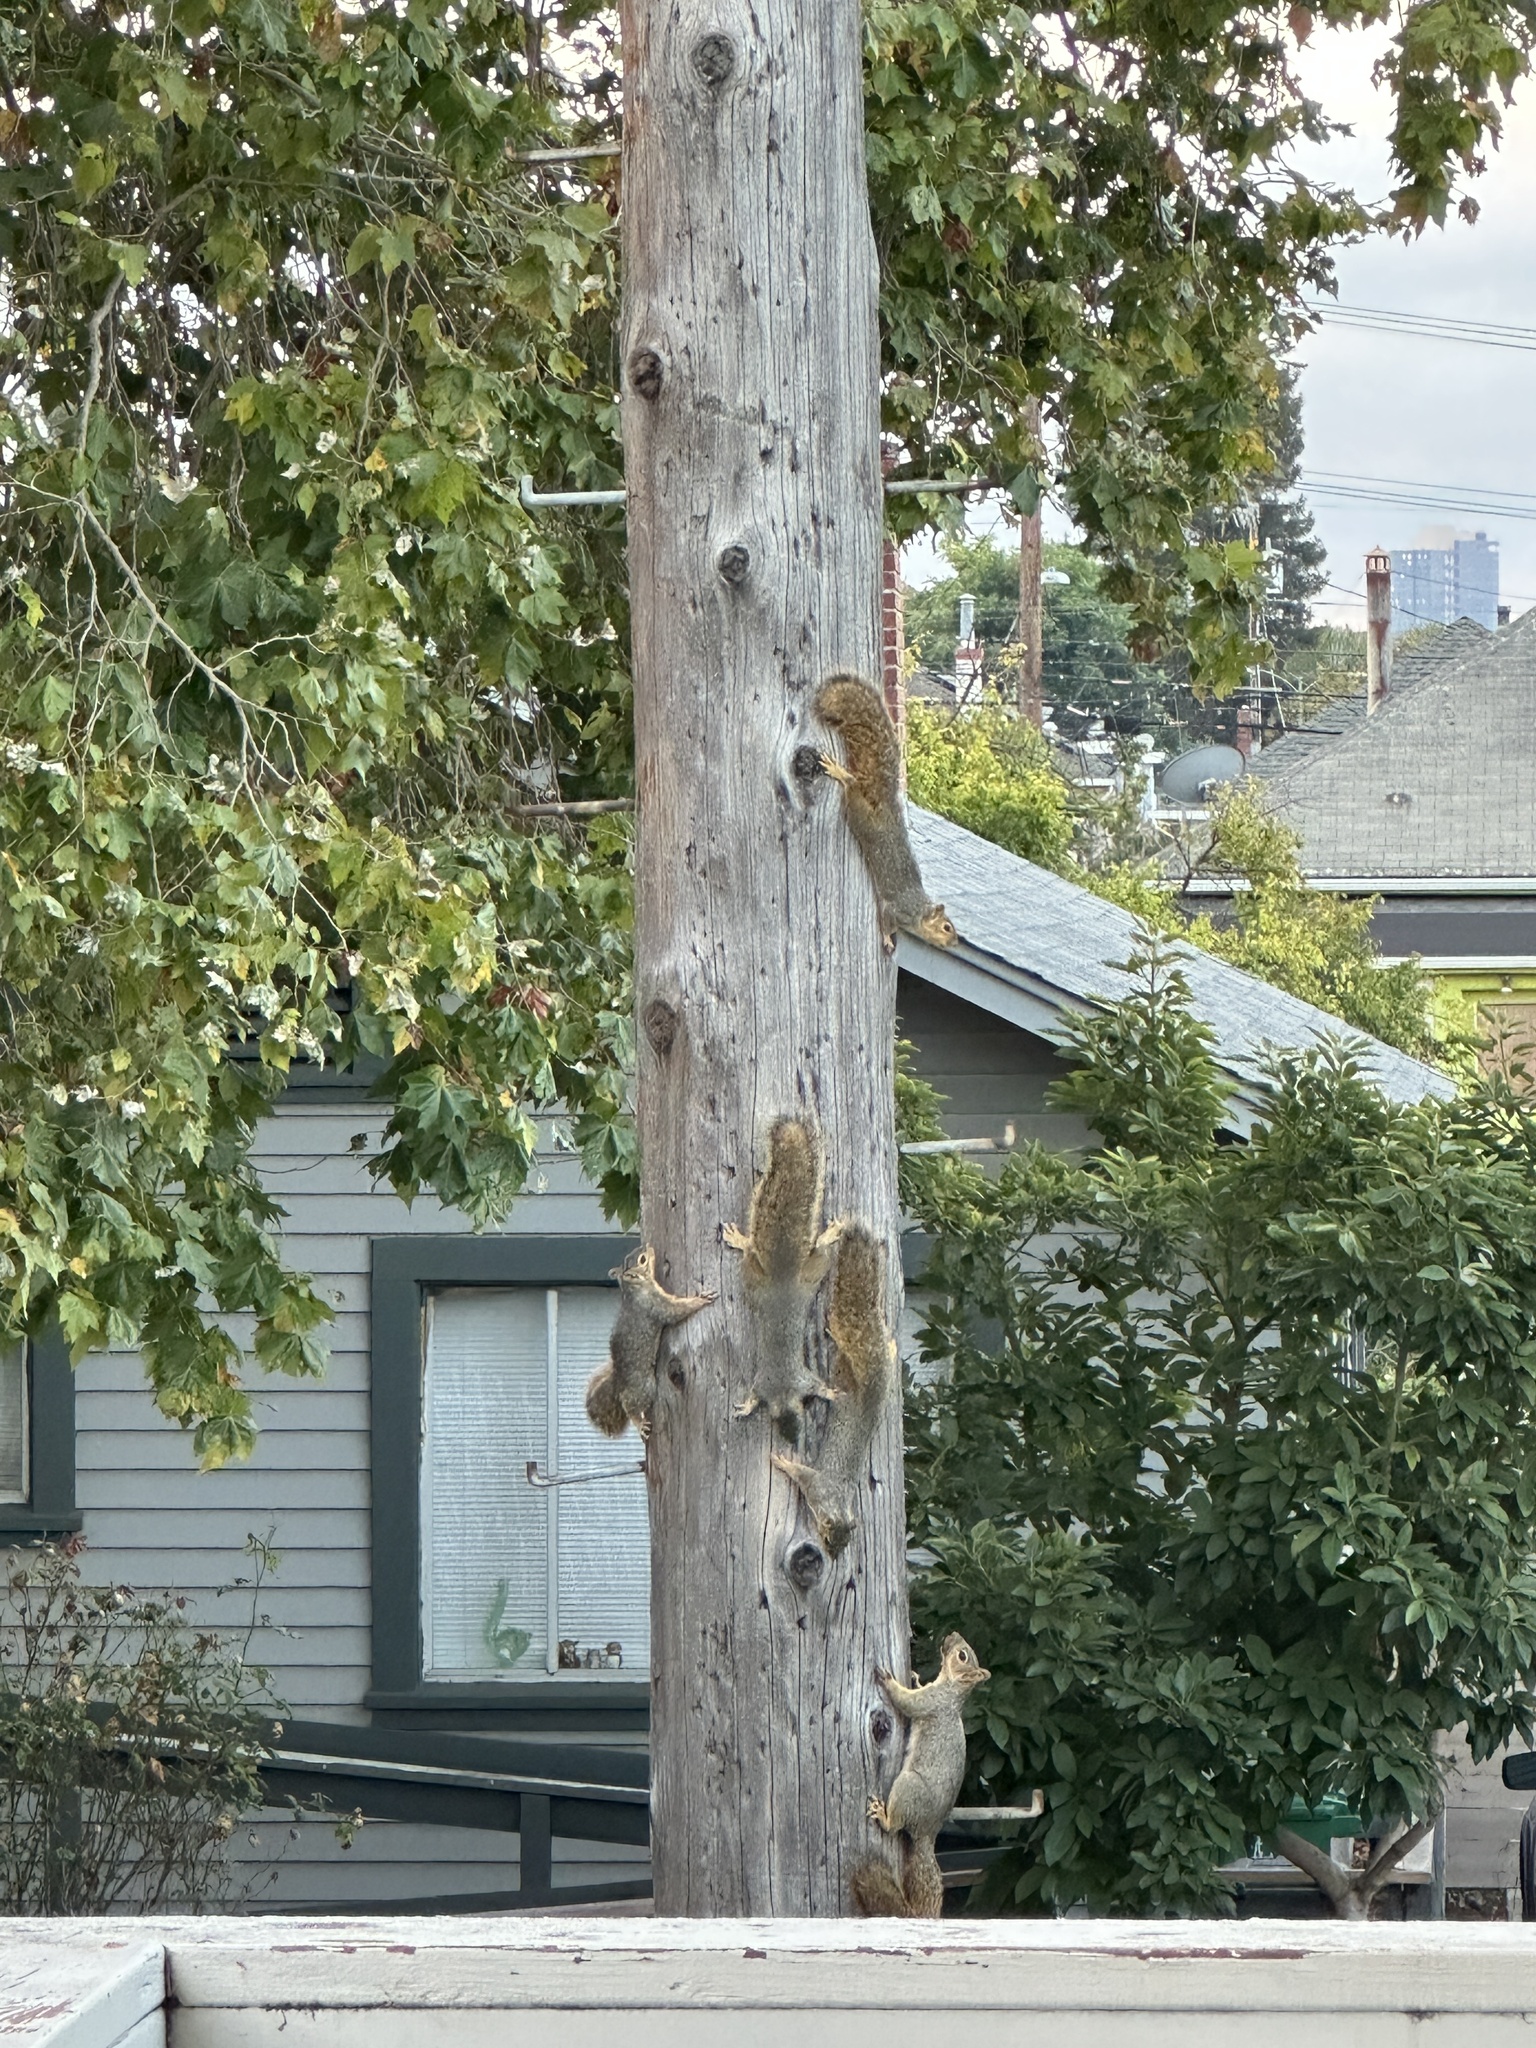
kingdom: Animalia
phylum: Chordata
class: Mammalia
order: Rodentia
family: Sciuridae
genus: Sciurus
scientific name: Sciurus niger
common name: Fox squirrel
